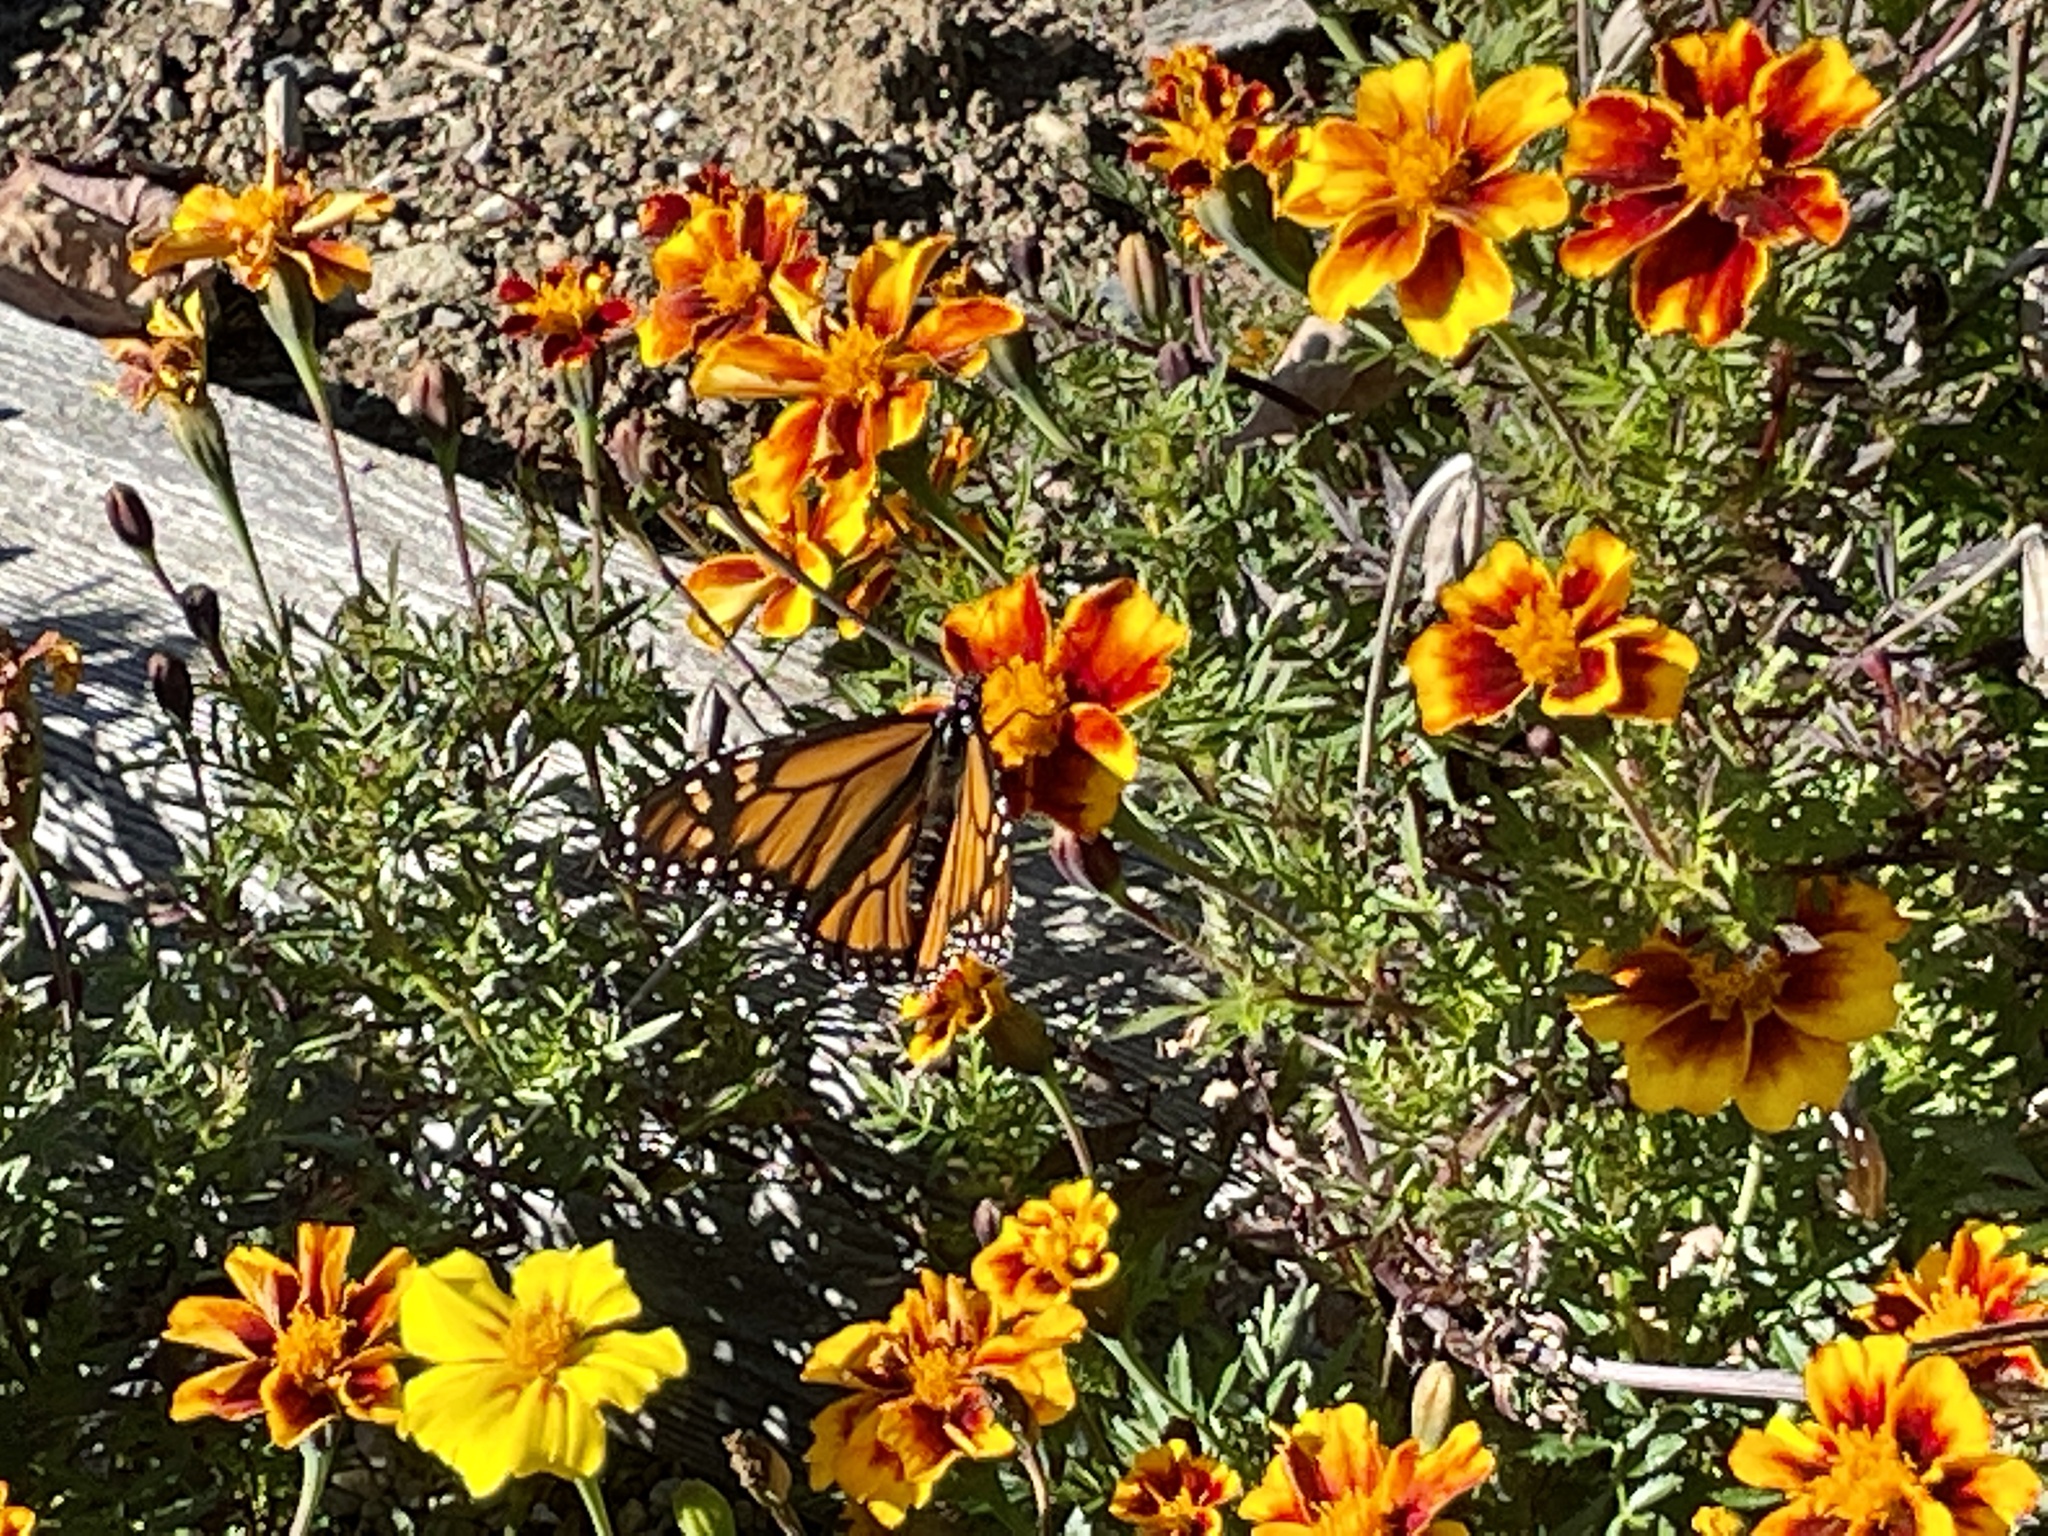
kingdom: Animalia
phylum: Arthropoda
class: Insecta
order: Lepidoptera
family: Nymphalidae
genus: Danaus
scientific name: Danaus plexippus
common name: Monarch
